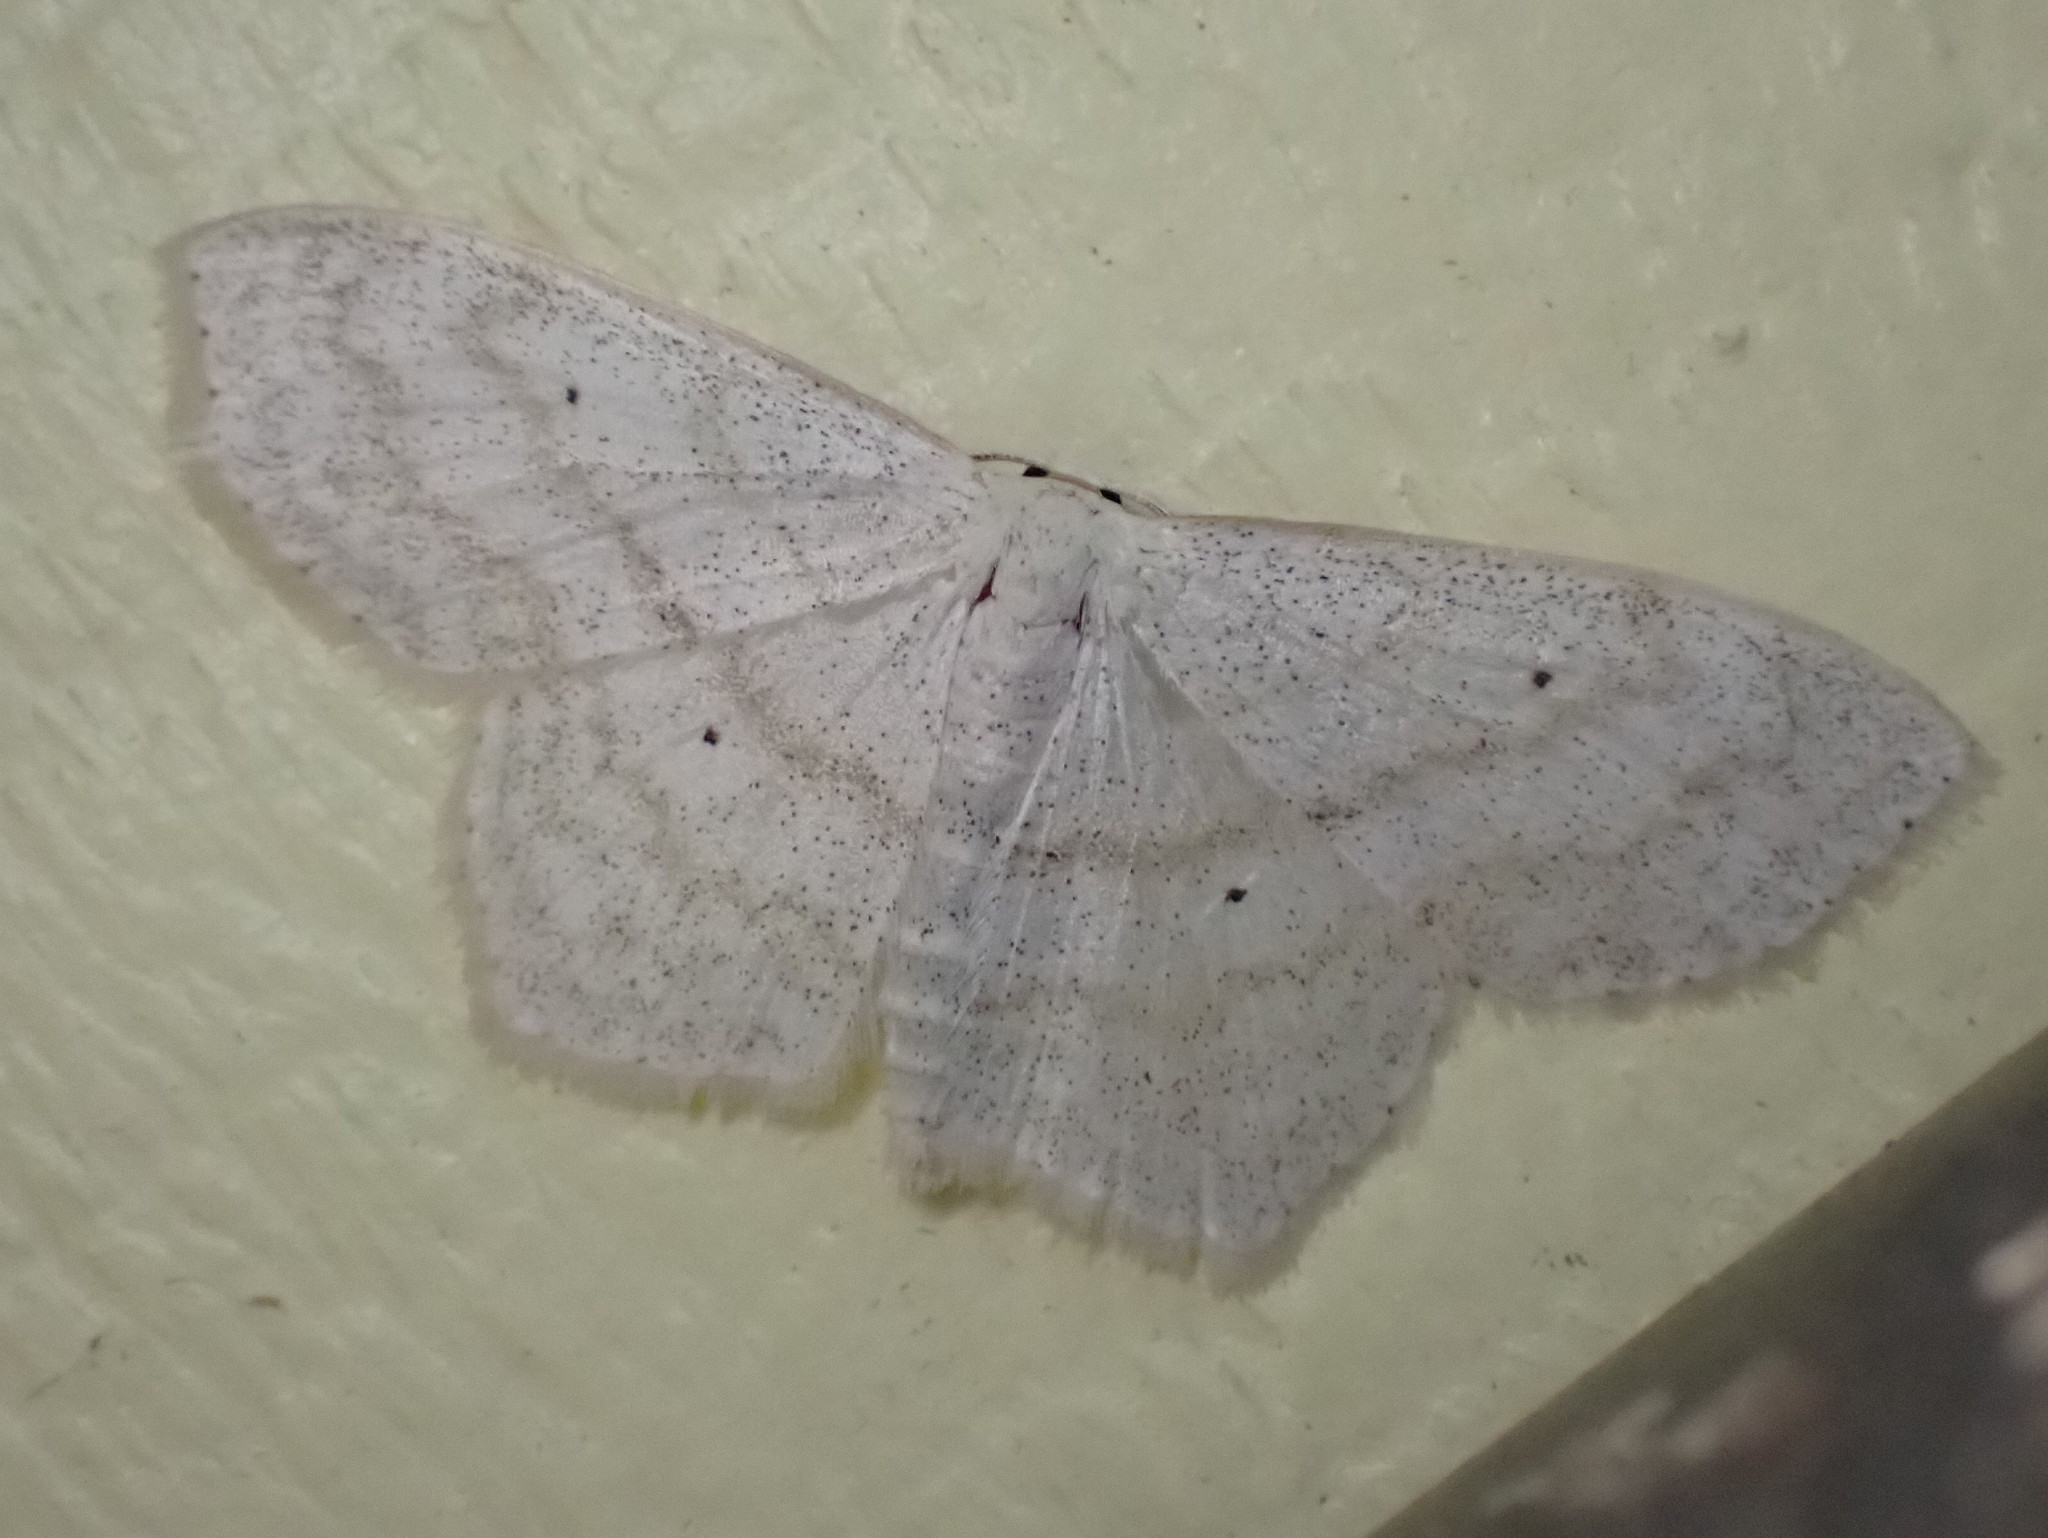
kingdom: Animalia
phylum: Arthropoda
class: Insecta
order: Lepidoptera
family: Geometridae
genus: Scopula
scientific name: Scopula limboundata
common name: Large lace border
